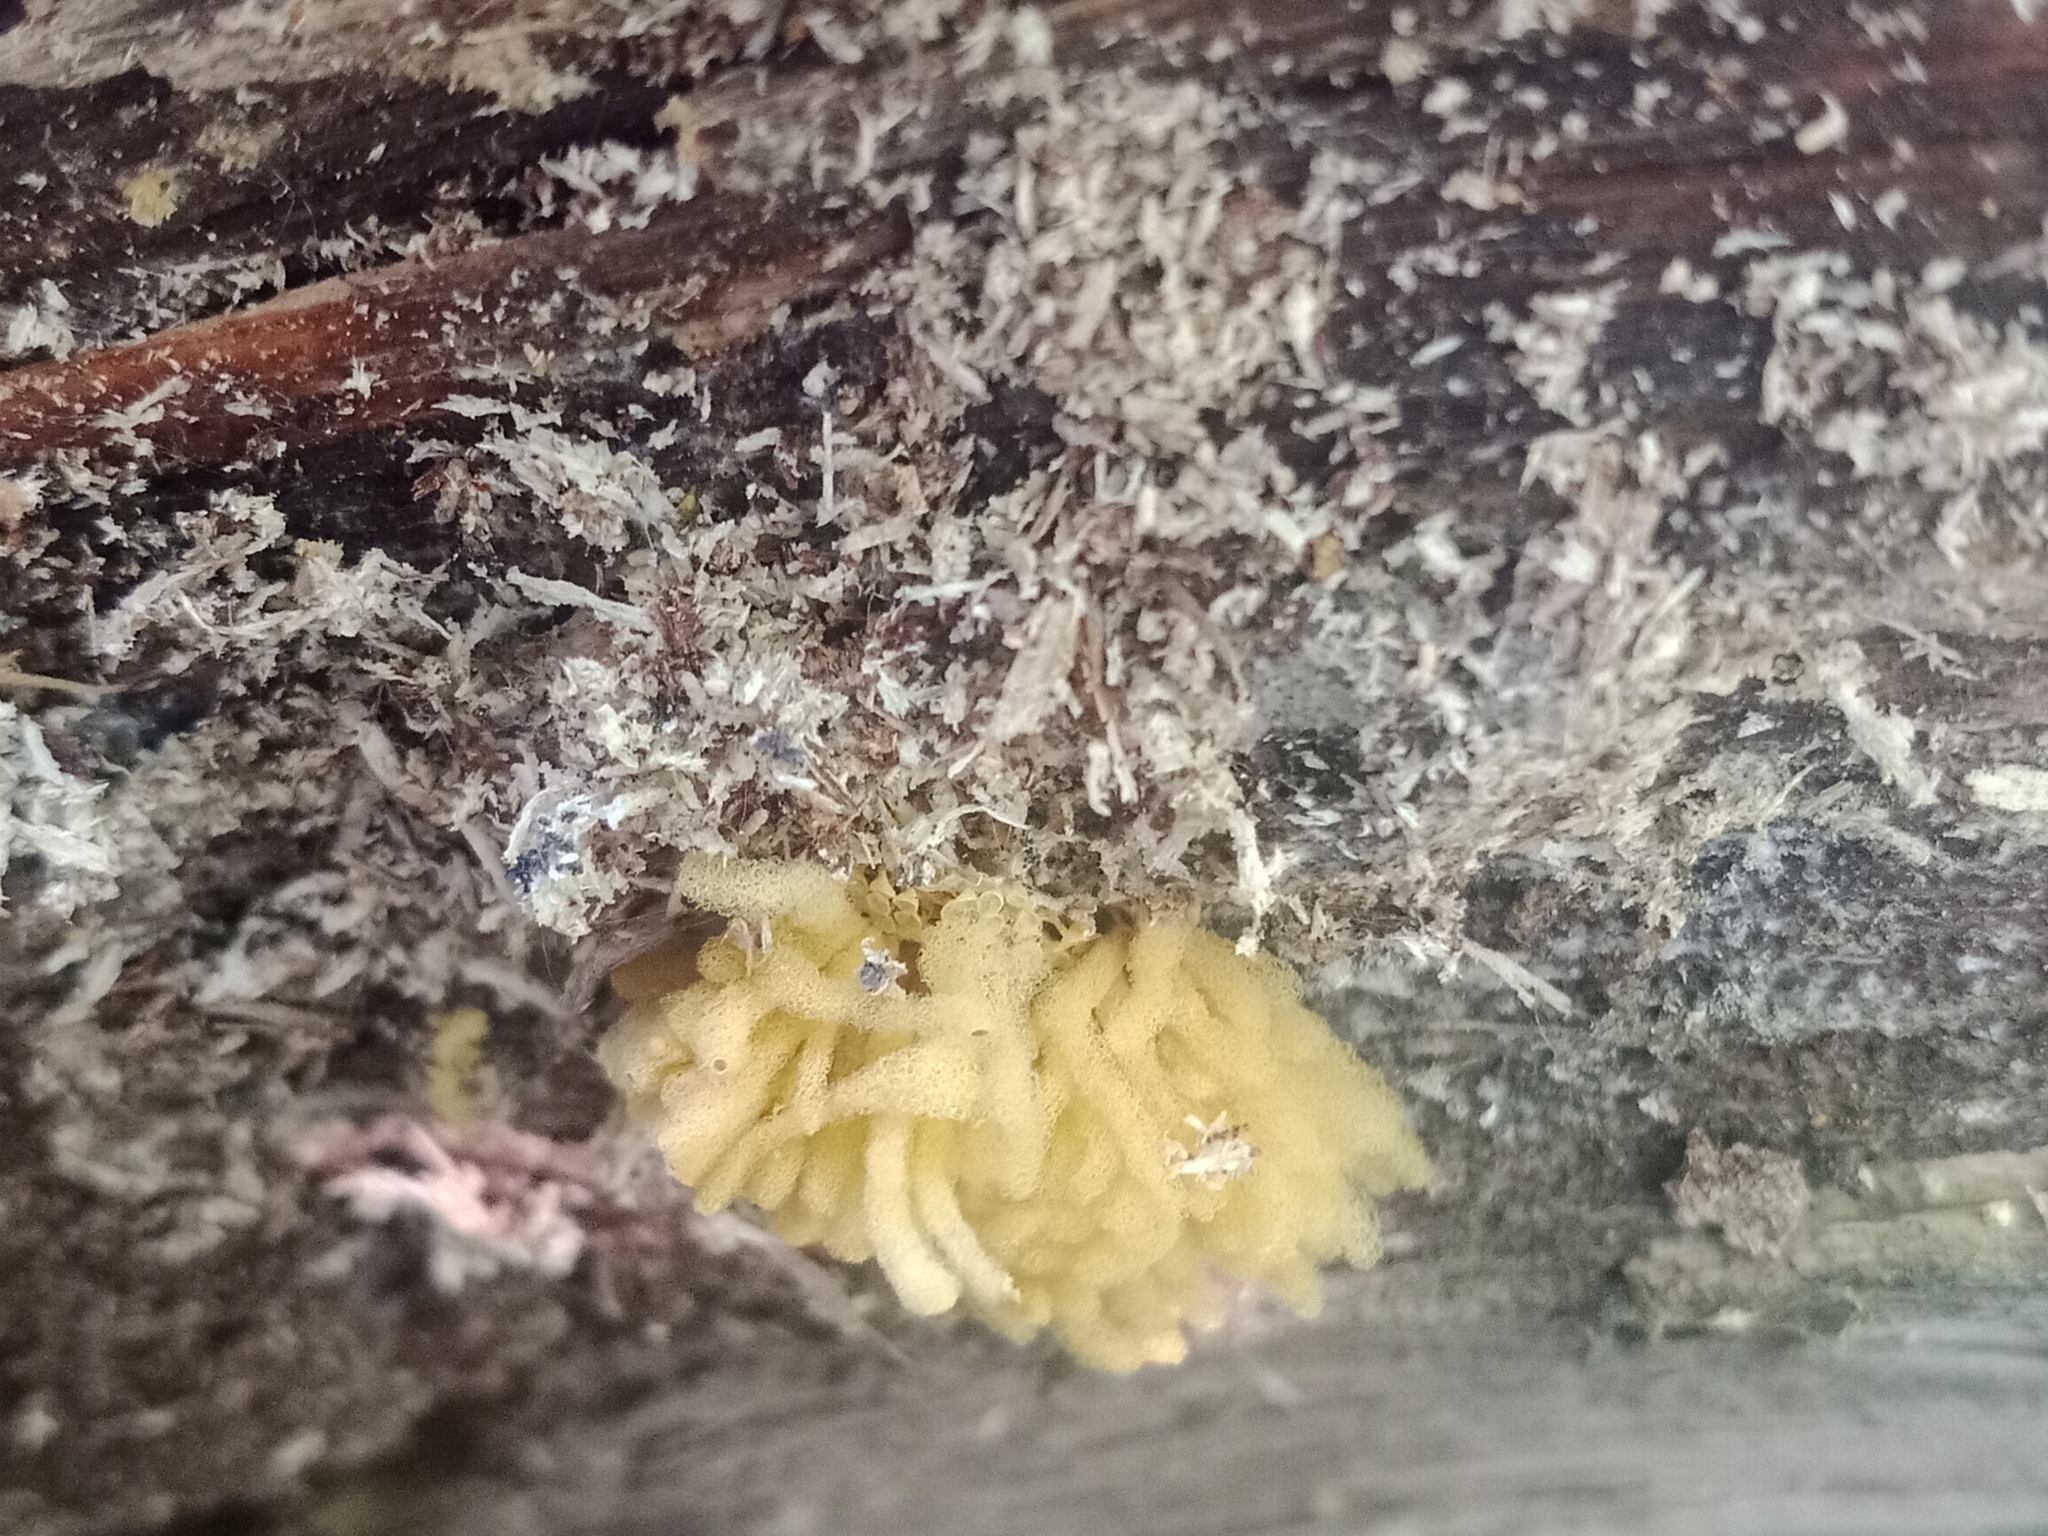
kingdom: Protozoa
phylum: Mycetozoa
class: Myxomycetes
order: Trichiales
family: Arcyriaceae
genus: Arcyria
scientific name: Arcyria obvelata
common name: Yellow carnival candy slime
